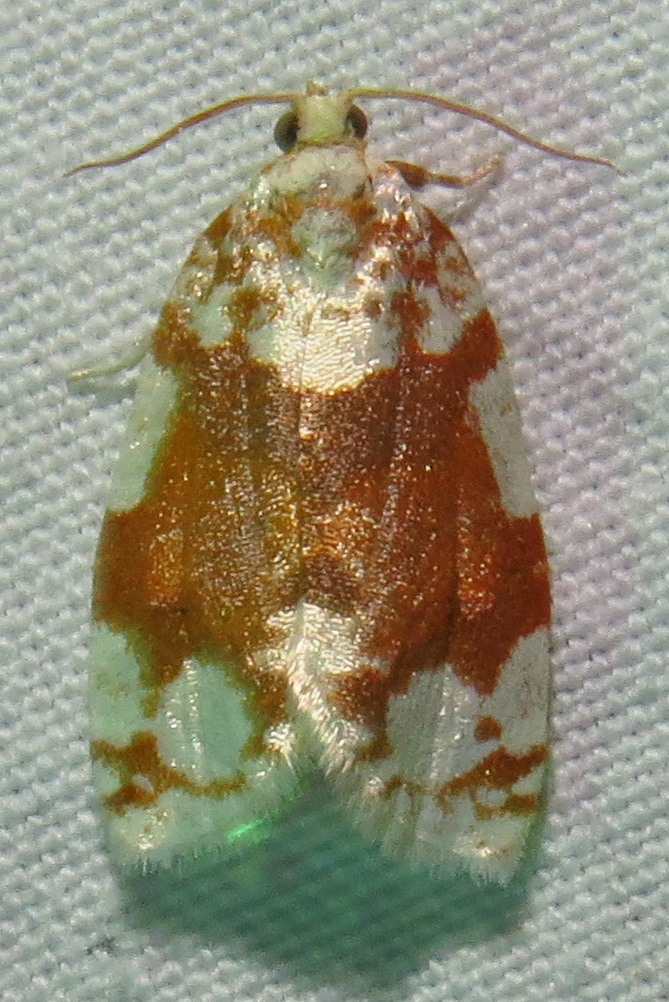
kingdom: Animalia
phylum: Arthropoda
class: Insecta
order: Lepidoptera
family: Tortricidae
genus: Argyrotaenia
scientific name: Argyrotaenia alisellana
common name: White-spotted leafroller moth
